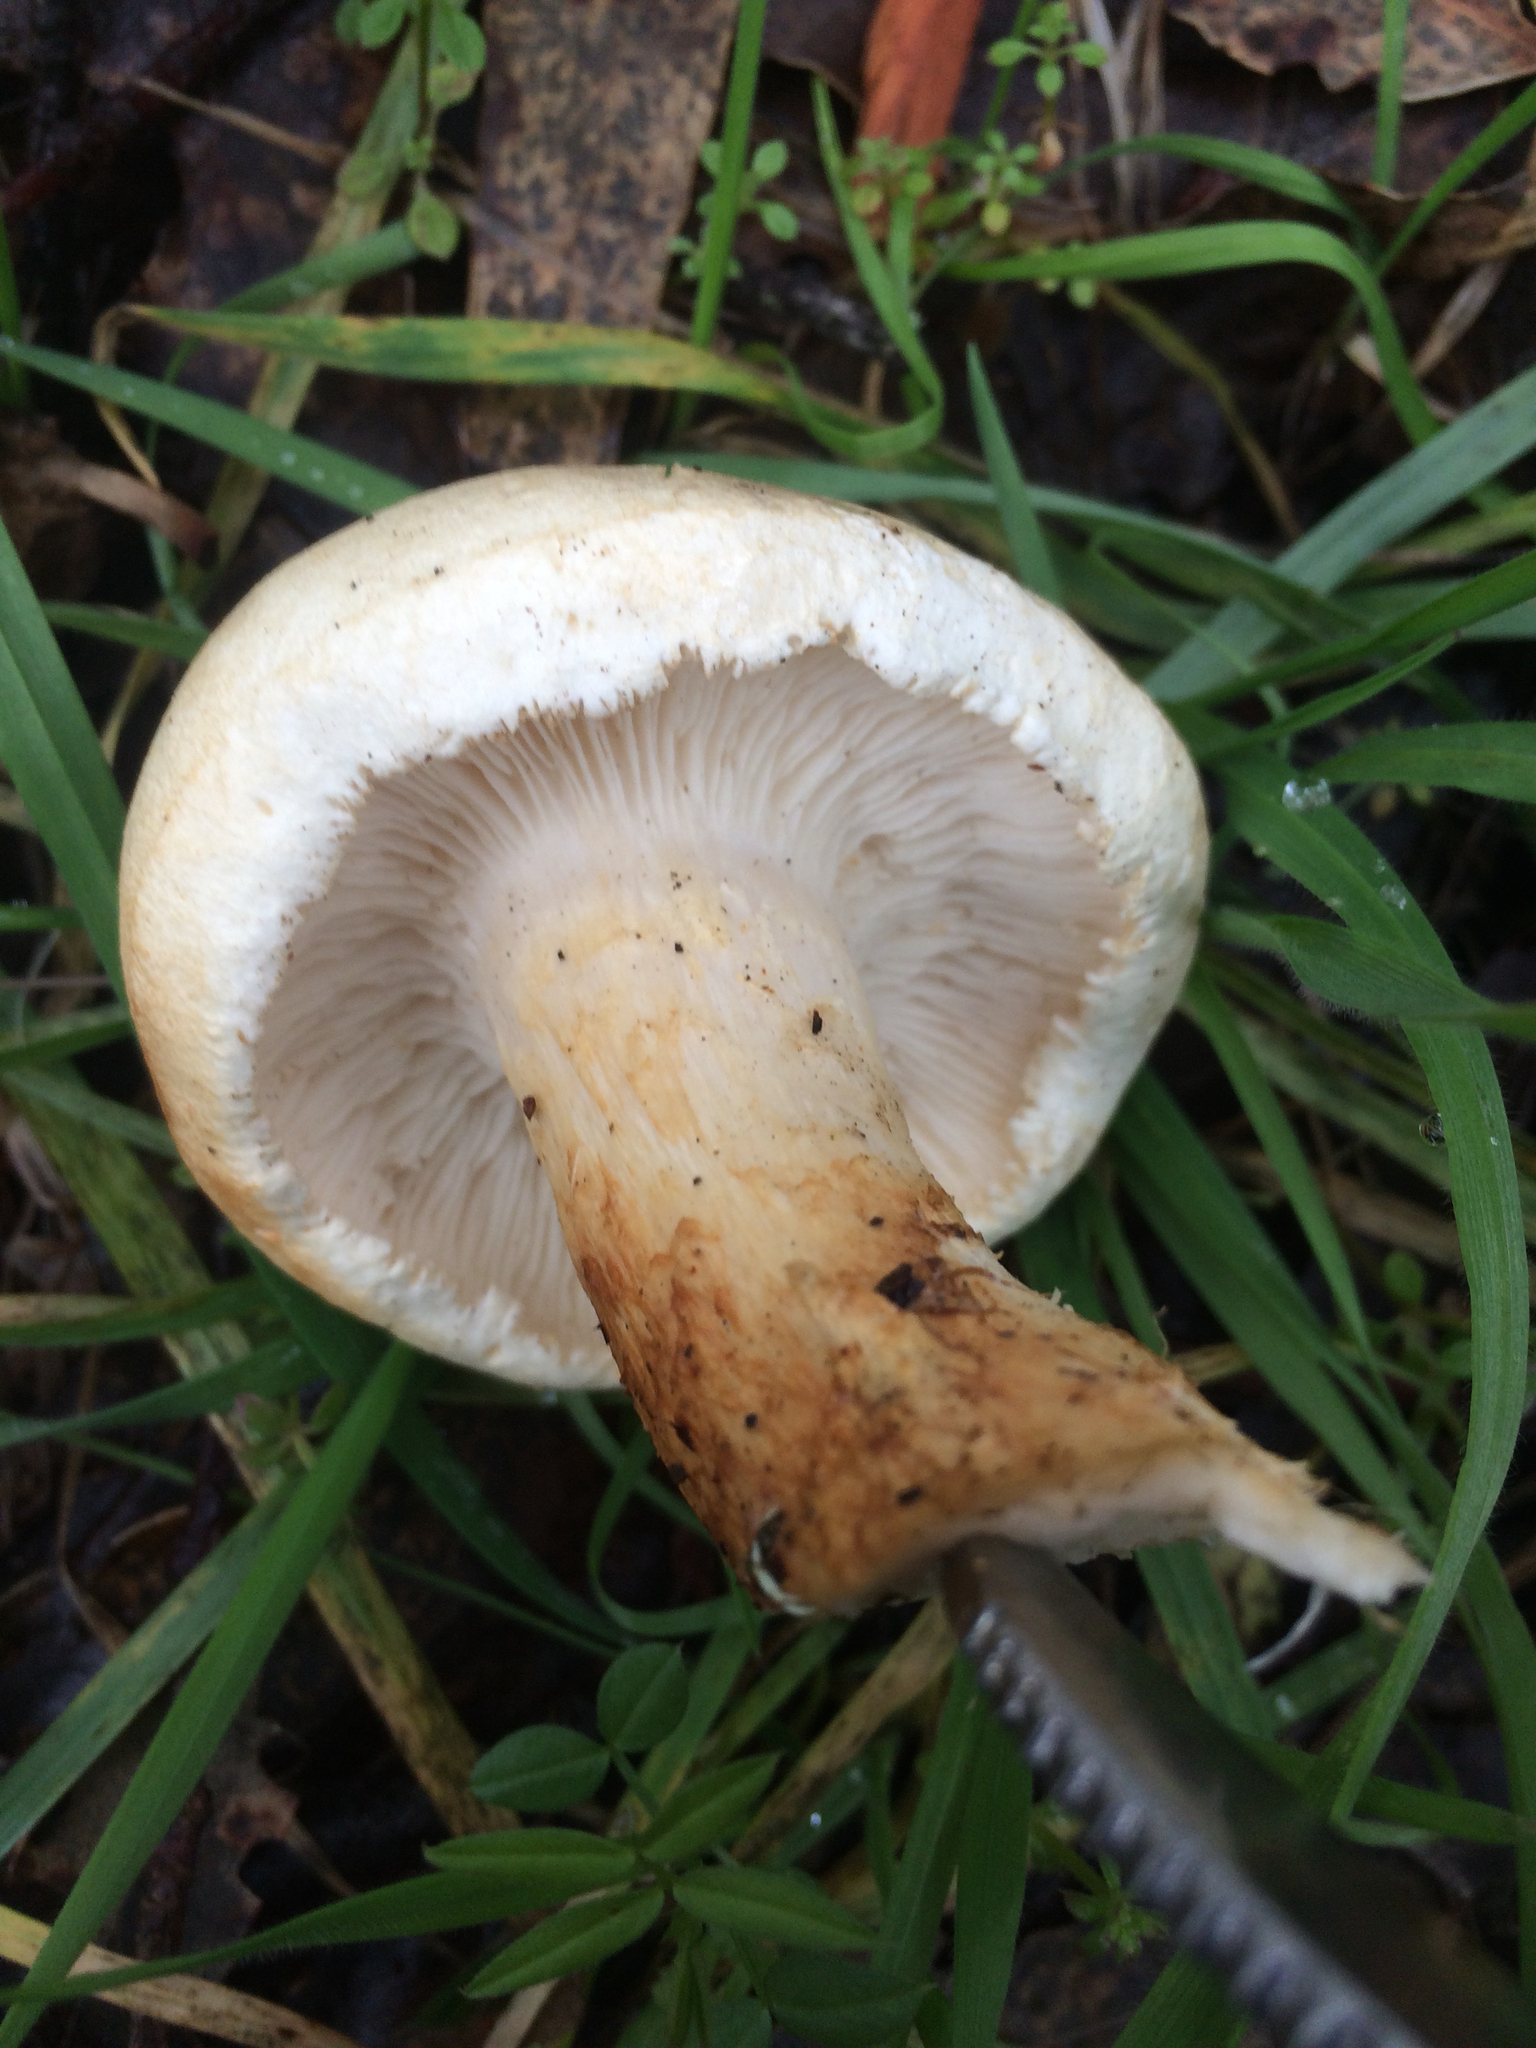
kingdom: Fungi
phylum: Basidiomycota
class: Agaricomycetes
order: Agaricales
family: Tricholomataceae
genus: Leucopaxillus
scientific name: Leucopaxillus albissimus
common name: Large white leucopax
